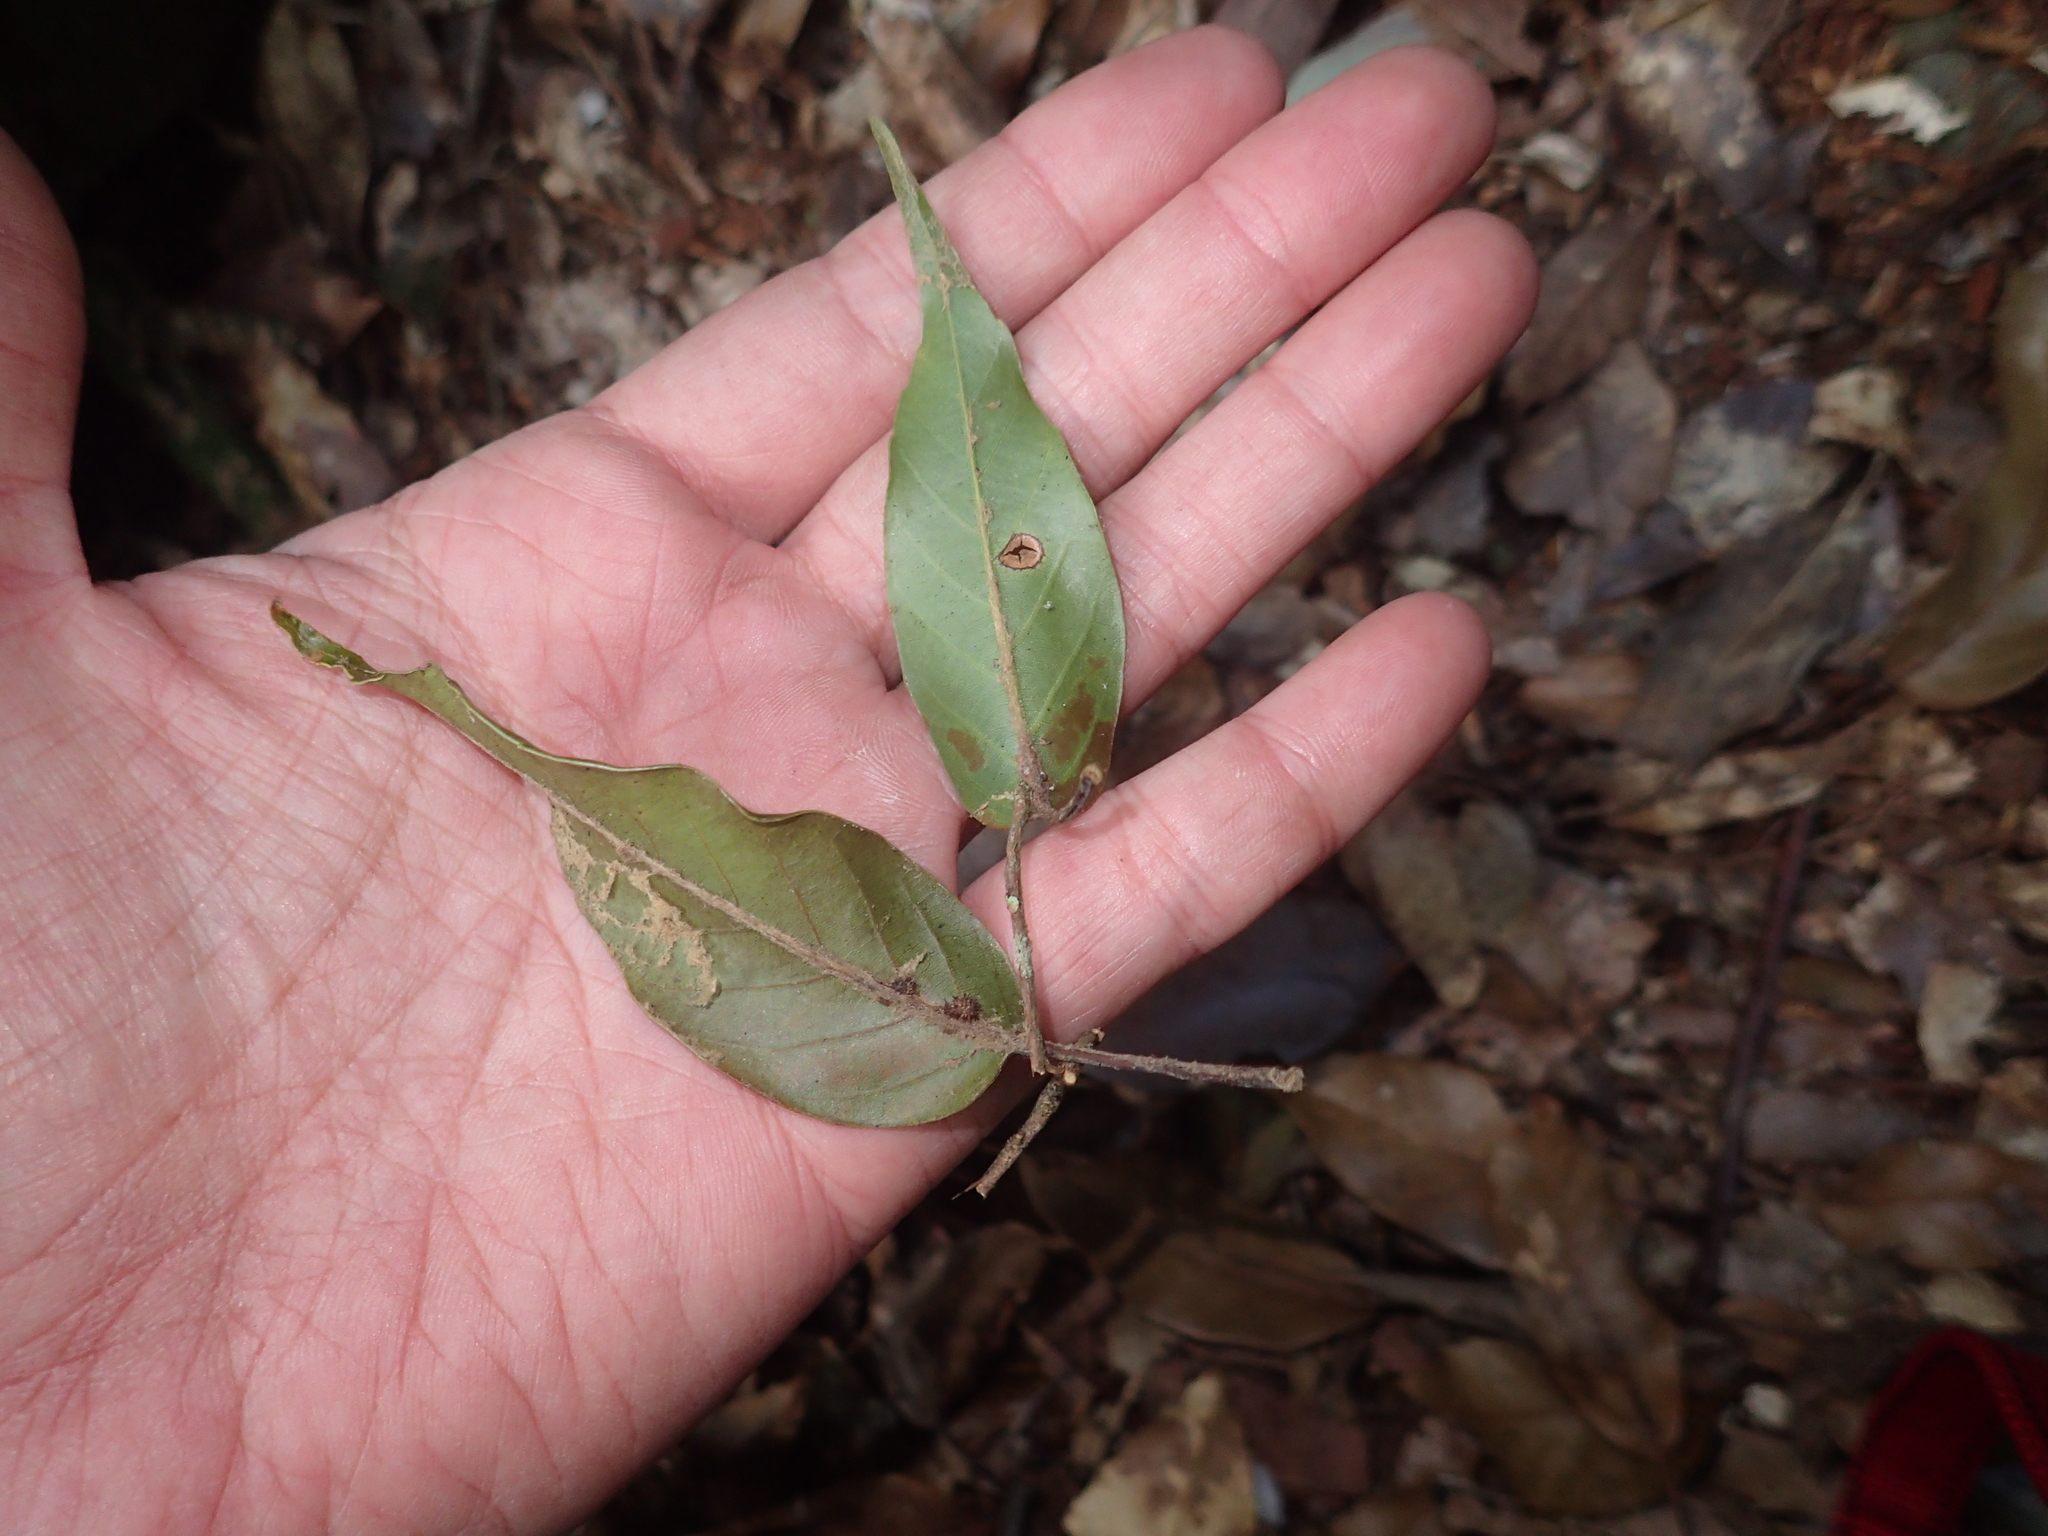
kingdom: Plantae
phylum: Tracheophyta
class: Magnoliopsida
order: Fagales
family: Fagaceae
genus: Quercus
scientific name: Quercus morii
